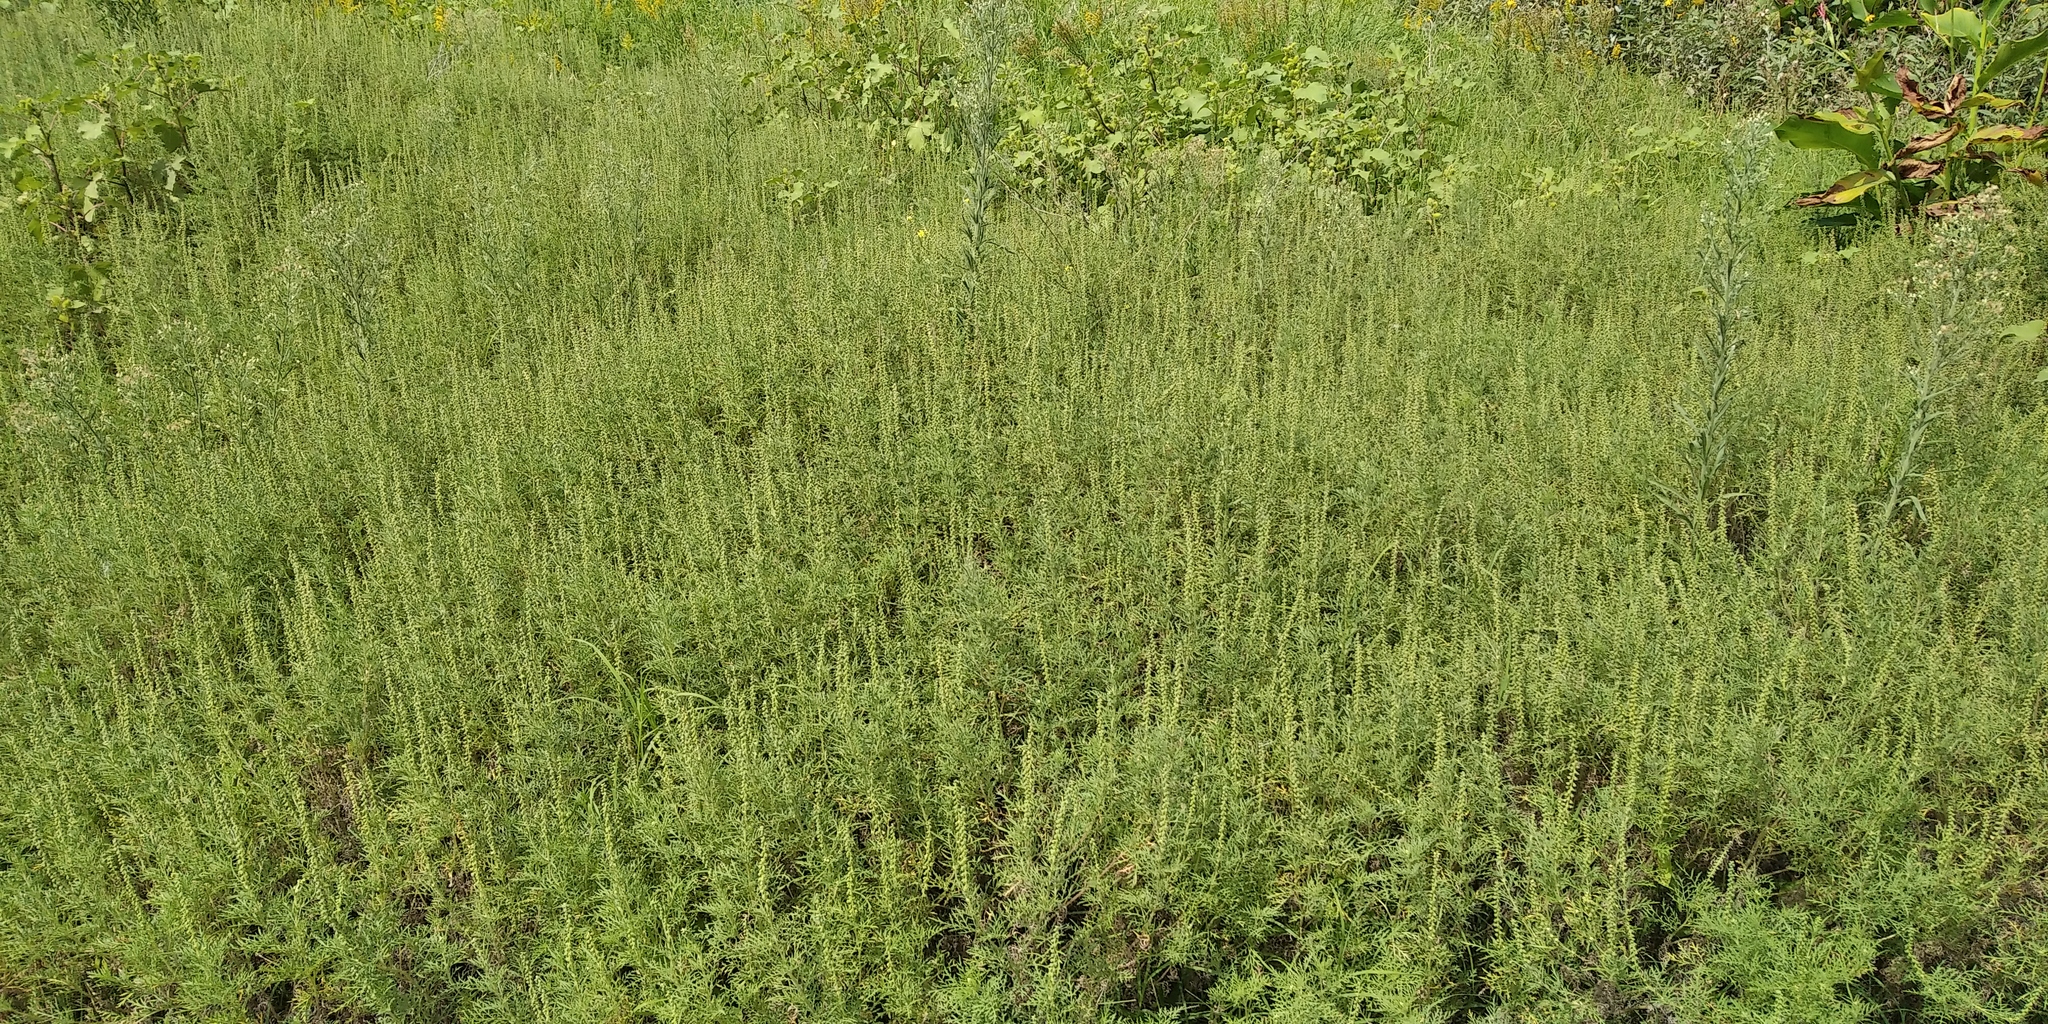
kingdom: Plantae
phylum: Tracheophyta
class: Magnoliopsida
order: Asterales
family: Asteraceae
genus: Ambrosia
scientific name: Ambrosia tenuifolia
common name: Lacy ambrosia
